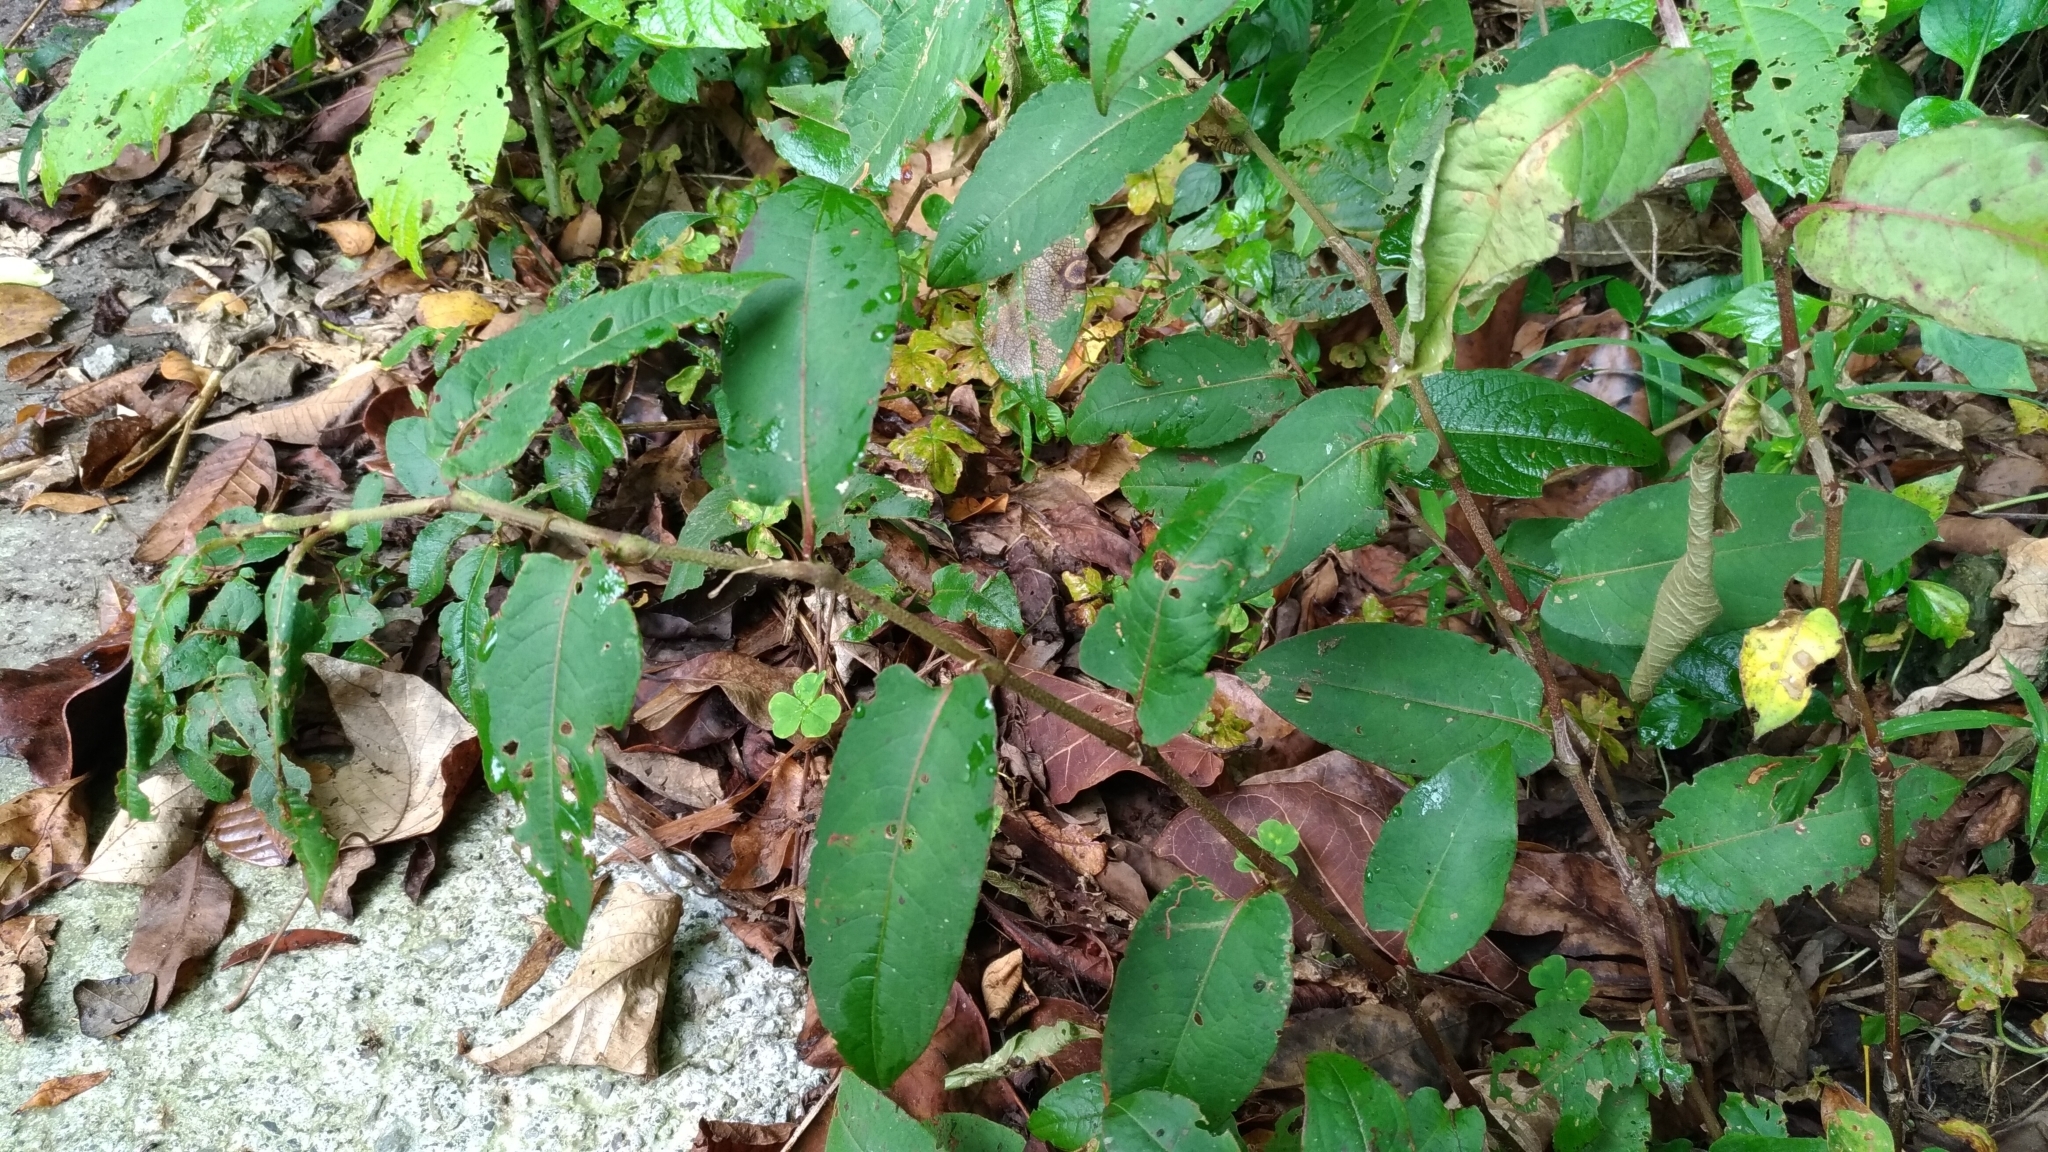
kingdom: Plantae
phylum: Tracheophyta
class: Magnoliopsida
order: Caryophyllales
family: Polygonaceae
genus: Persicaria
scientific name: Persicaria chinensis
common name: Chinese knotweed
